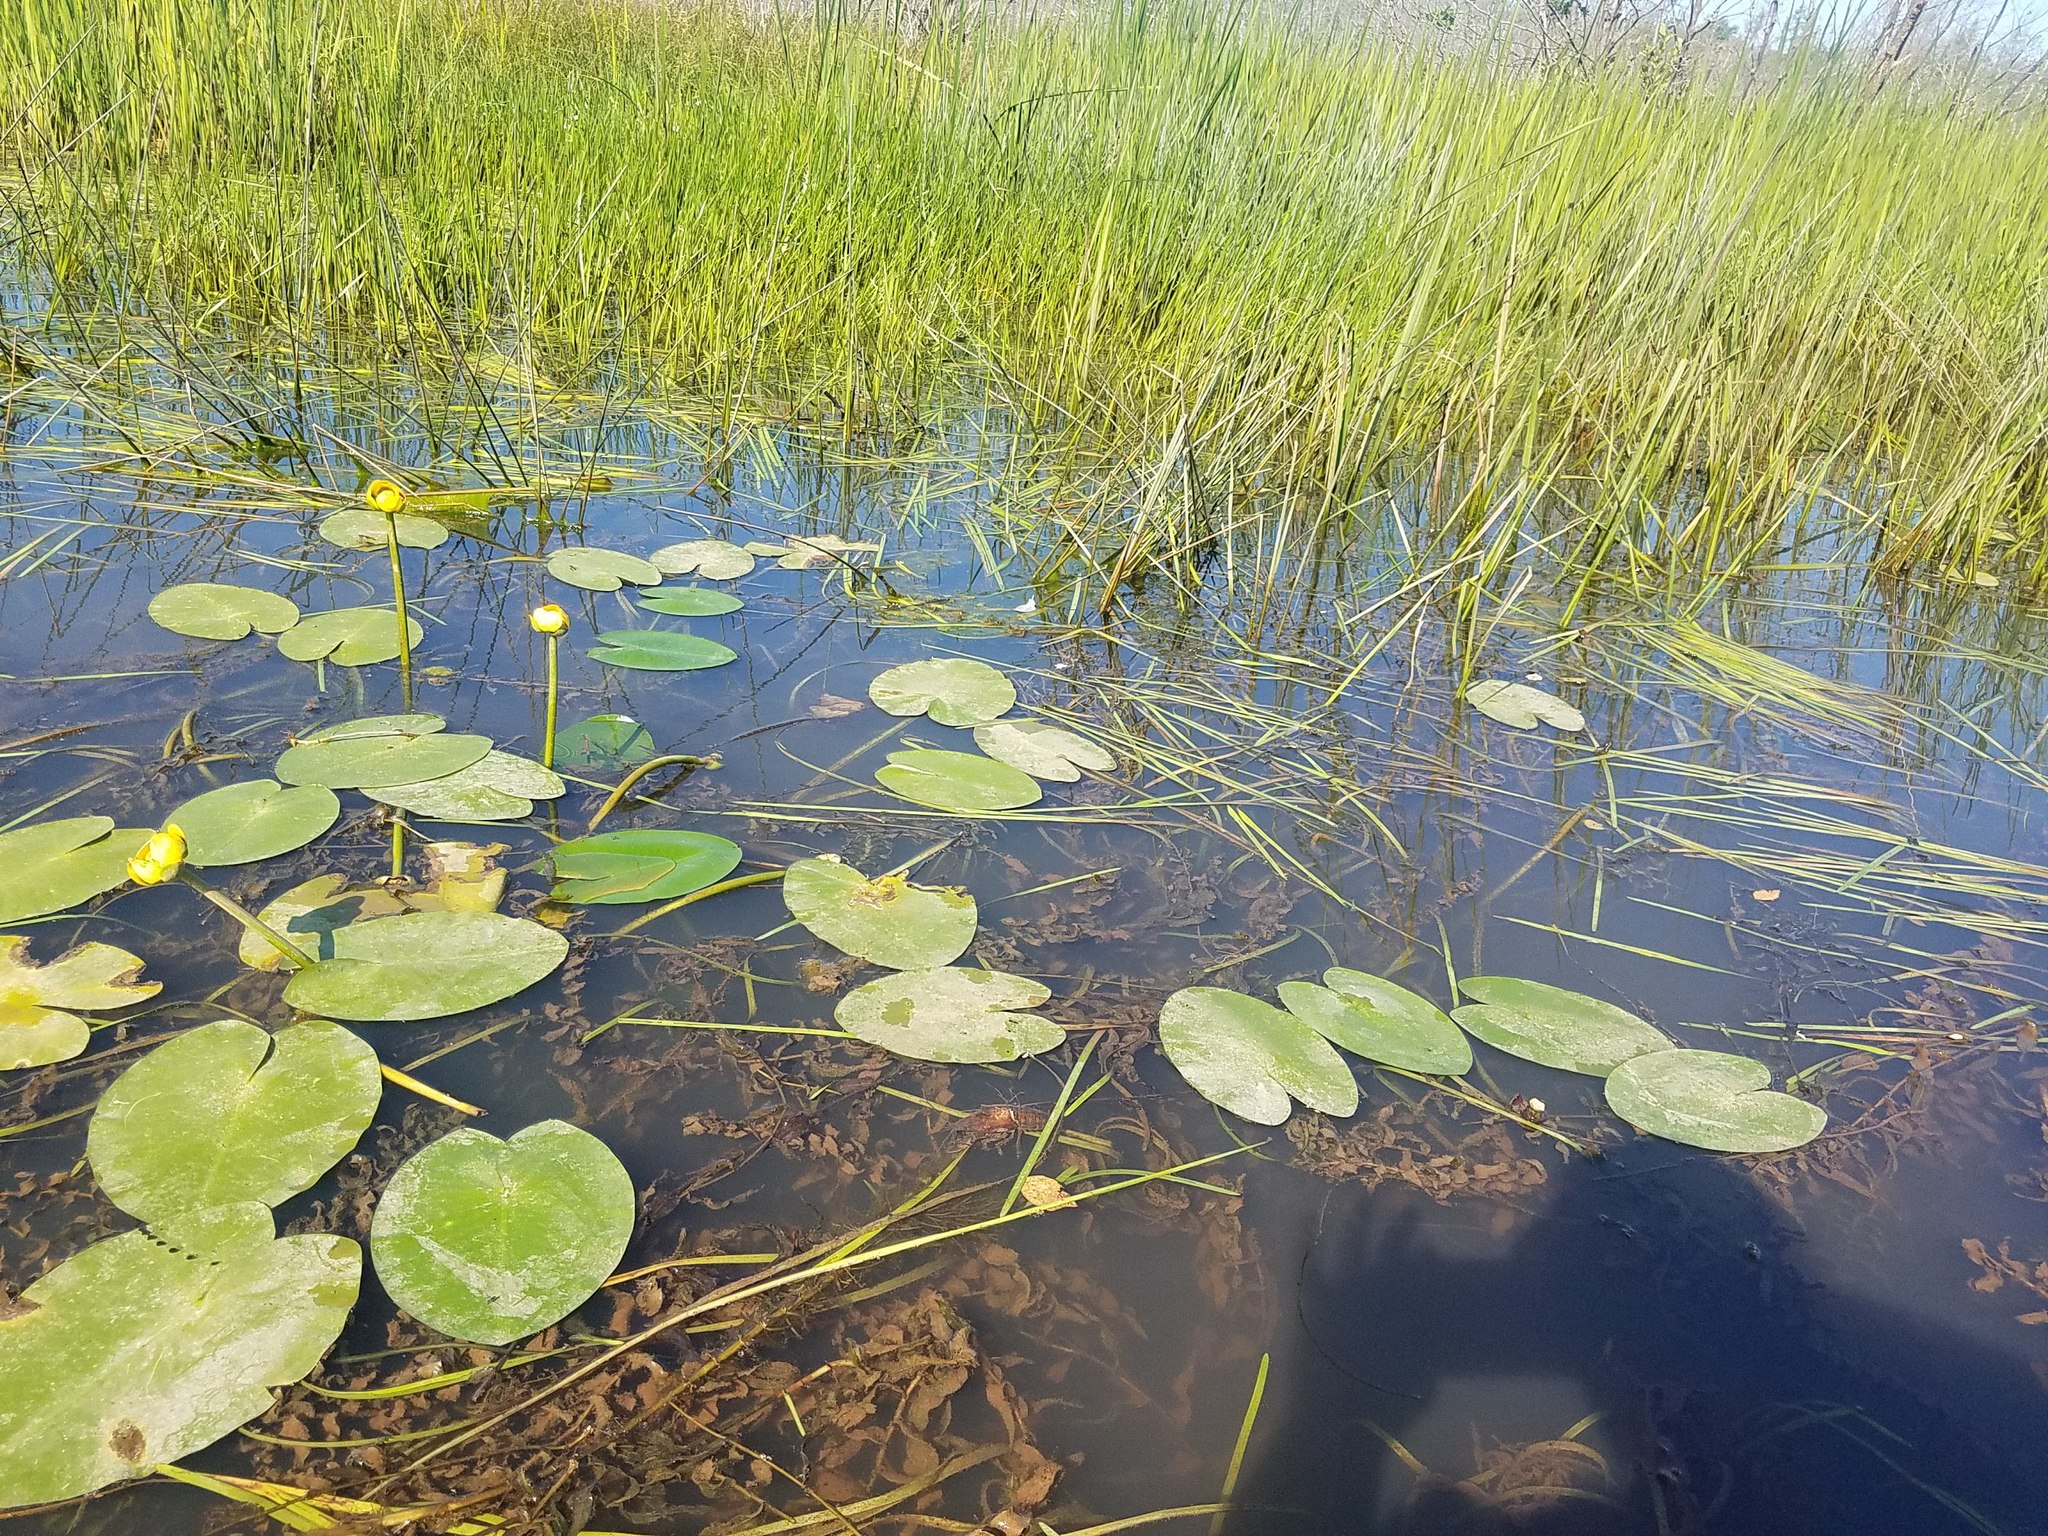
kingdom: Plantae
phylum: Tracheophyta
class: Magnoliopsida
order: Nymphaeales
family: Nymphaeaceae
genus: Nuphar
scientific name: Nuphar variegata
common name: Beaver-root
